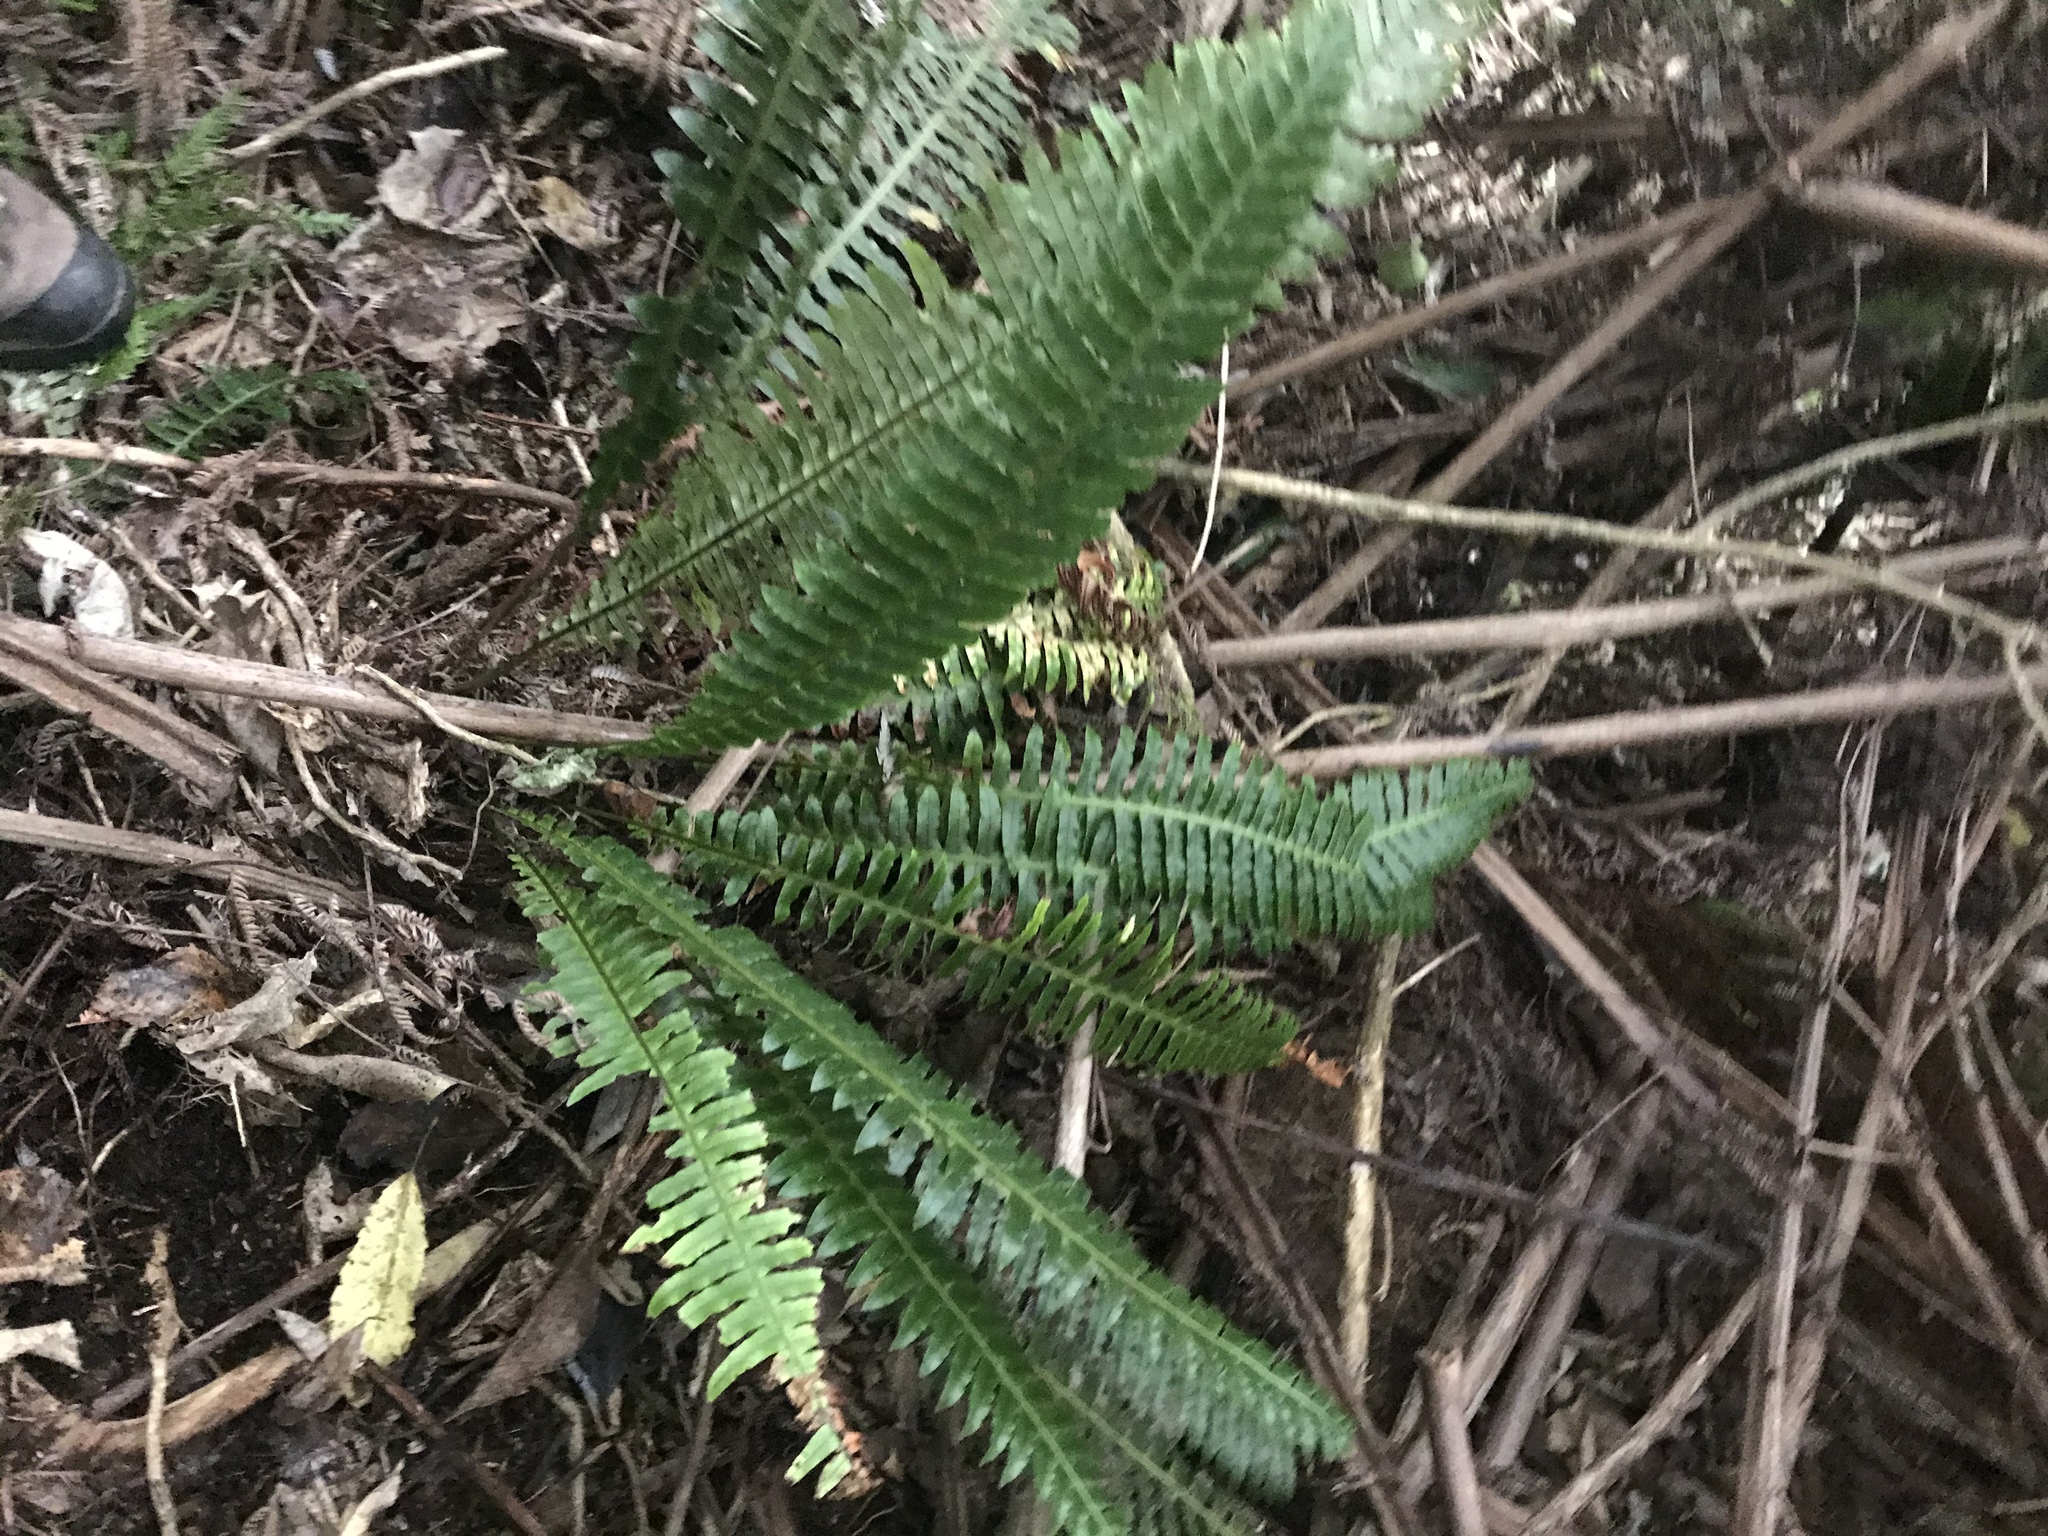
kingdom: Plantae
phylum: Tracheophyta
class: Polypodiopsida
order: Polypodiales
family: Blechnaceae
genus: Lomaria
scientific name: Lomaria discolor
